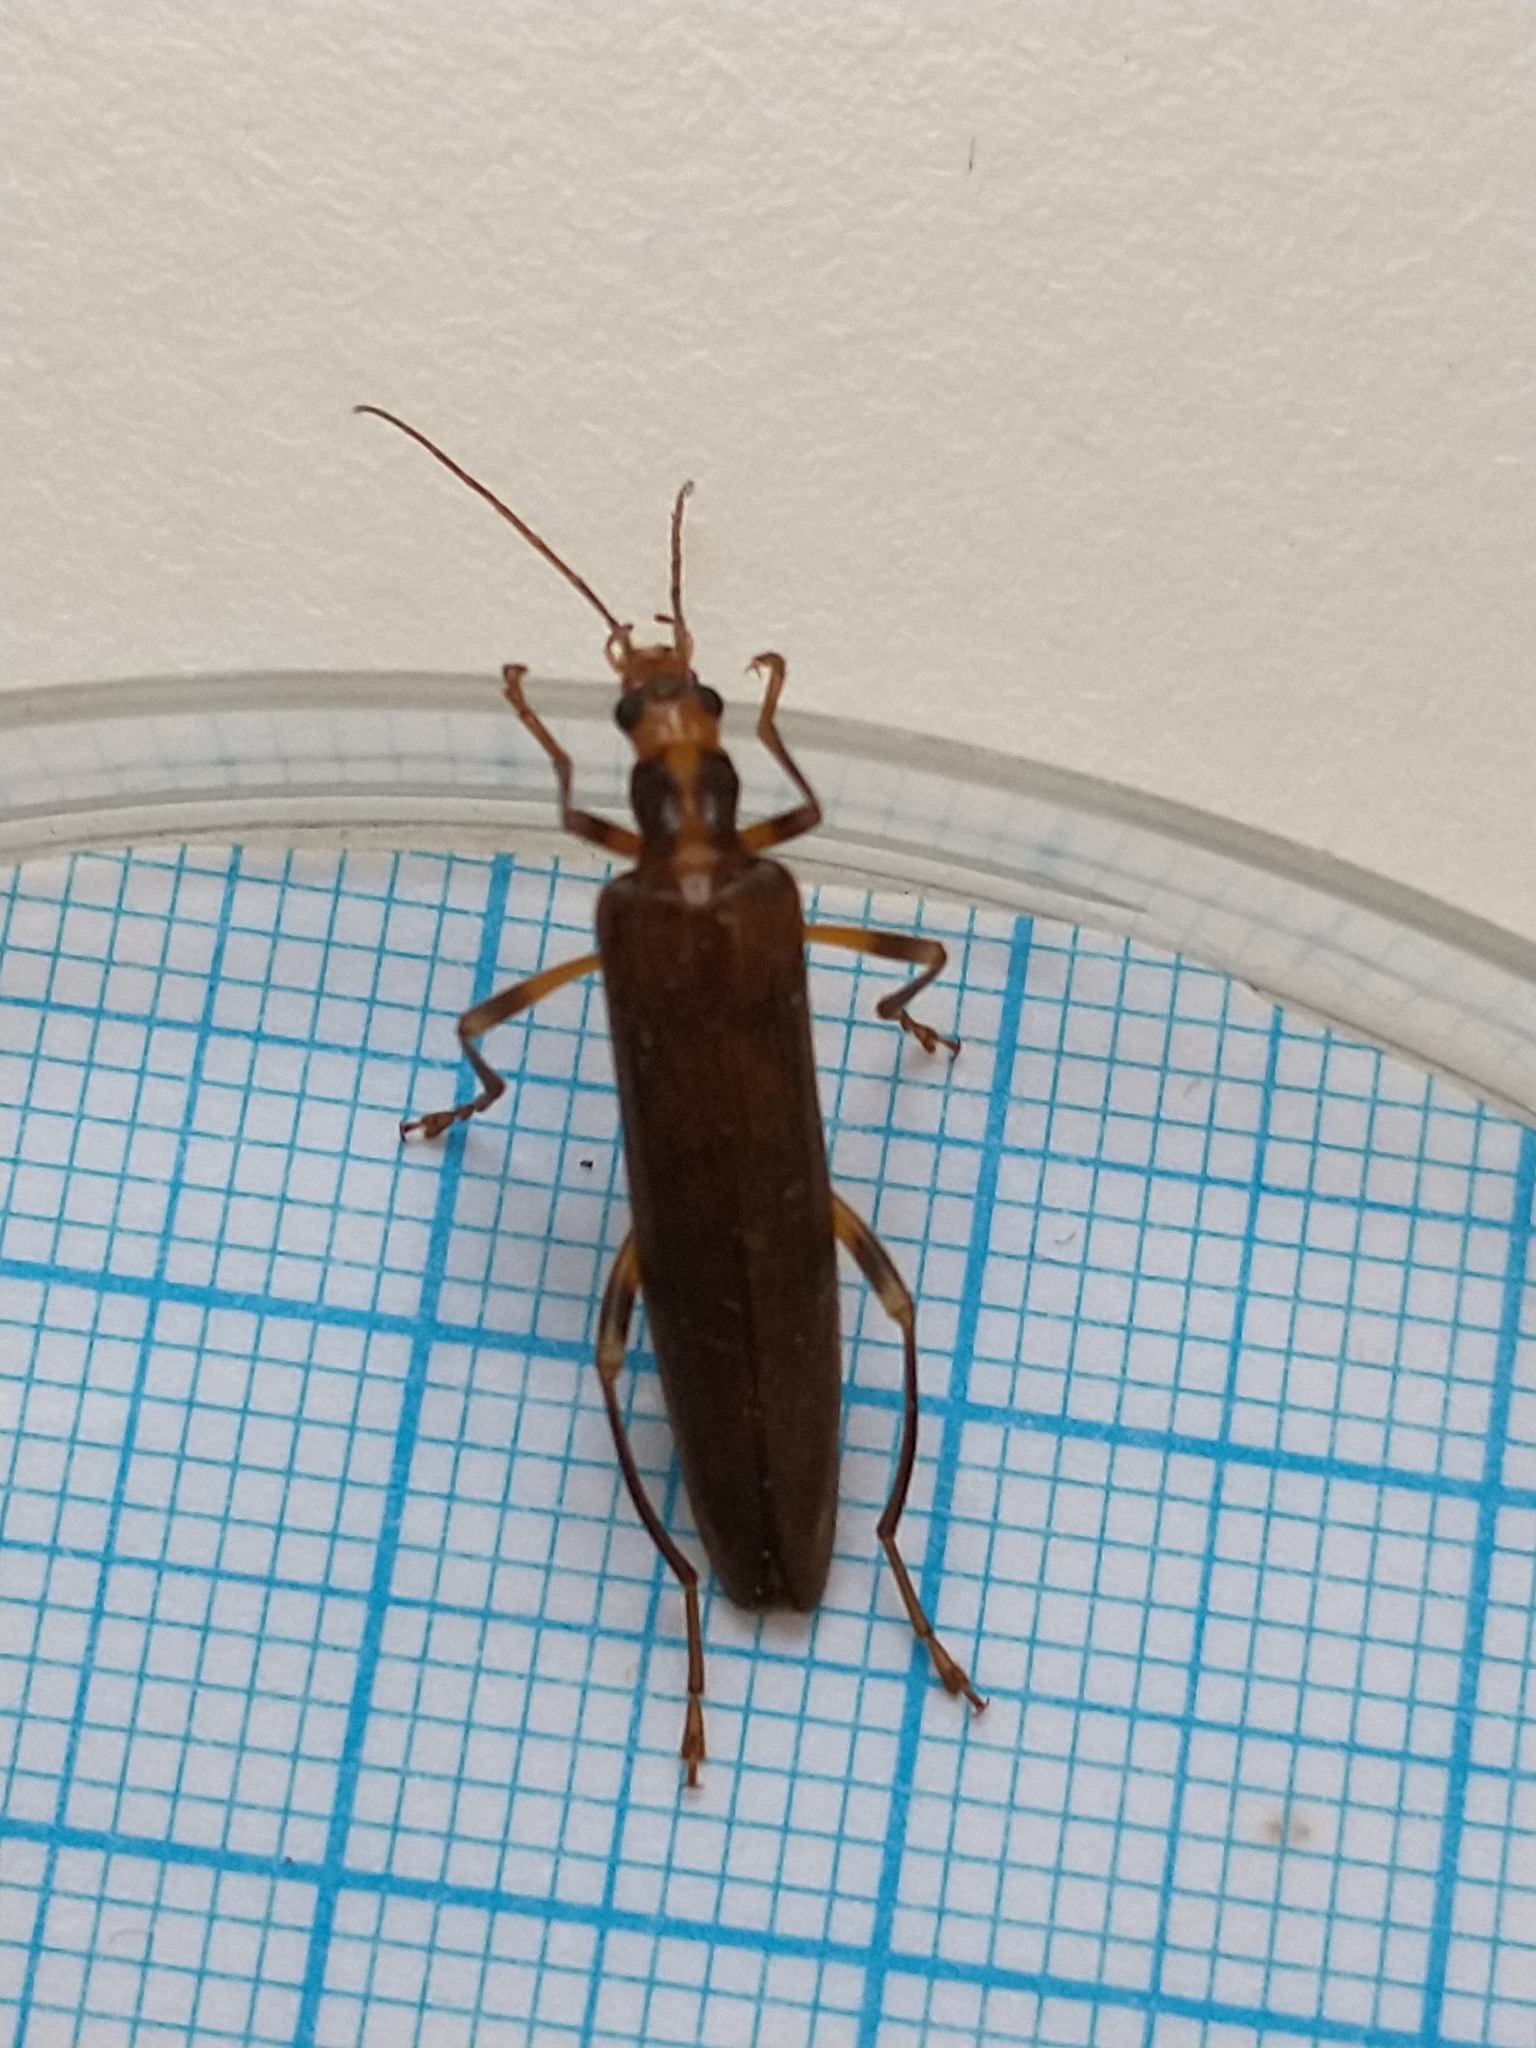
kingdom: Animalia
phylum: Arthropoda
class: Insecta
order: Coleoptera
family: Oedemeridae
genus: Oedemera
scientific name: Oedemera femoralis
